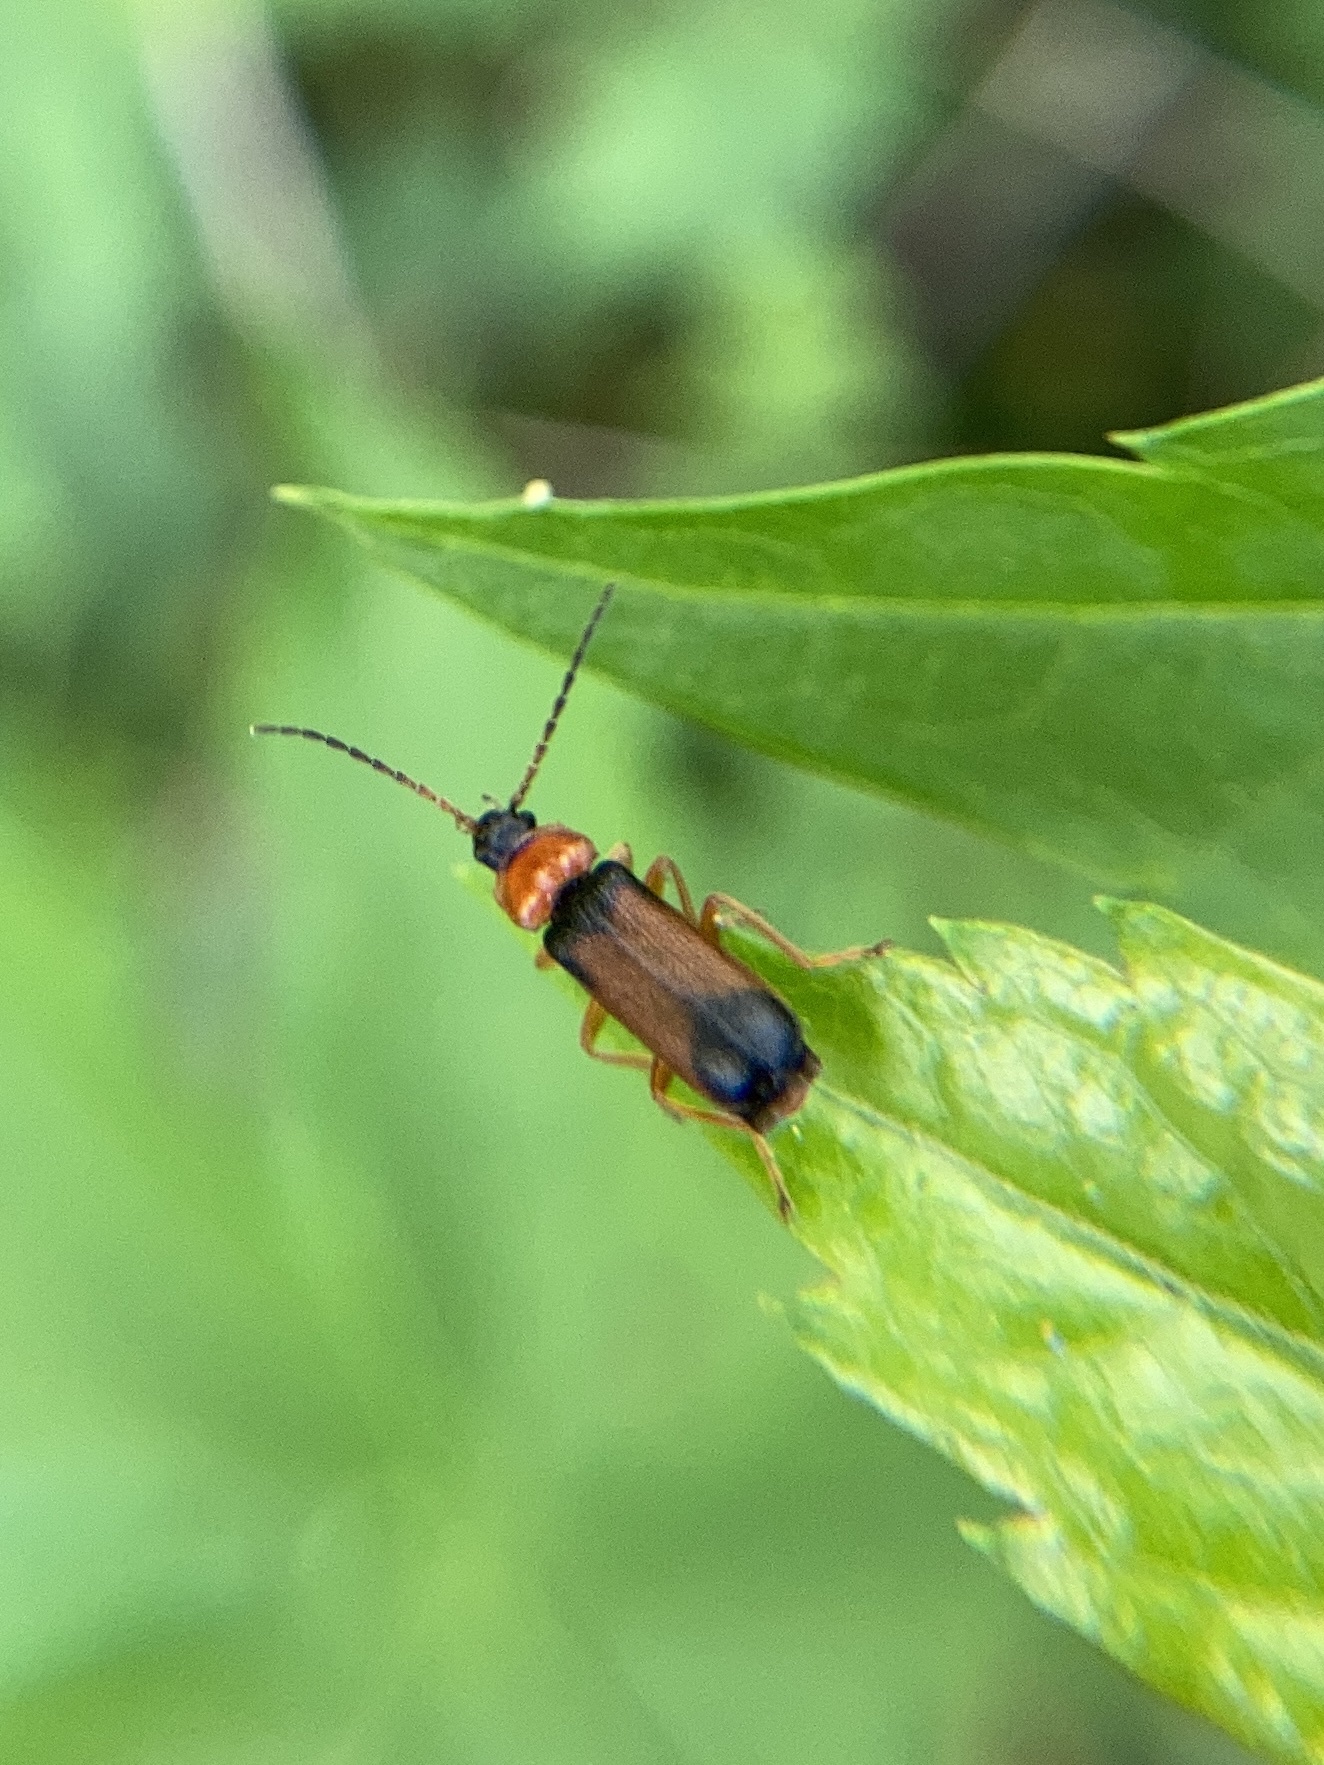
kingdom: Animalia
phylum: Arthropoda
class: Insecta
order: Coleoptera
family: Cantharidae
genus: Cratosilis
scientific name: Cratosilis laeta
